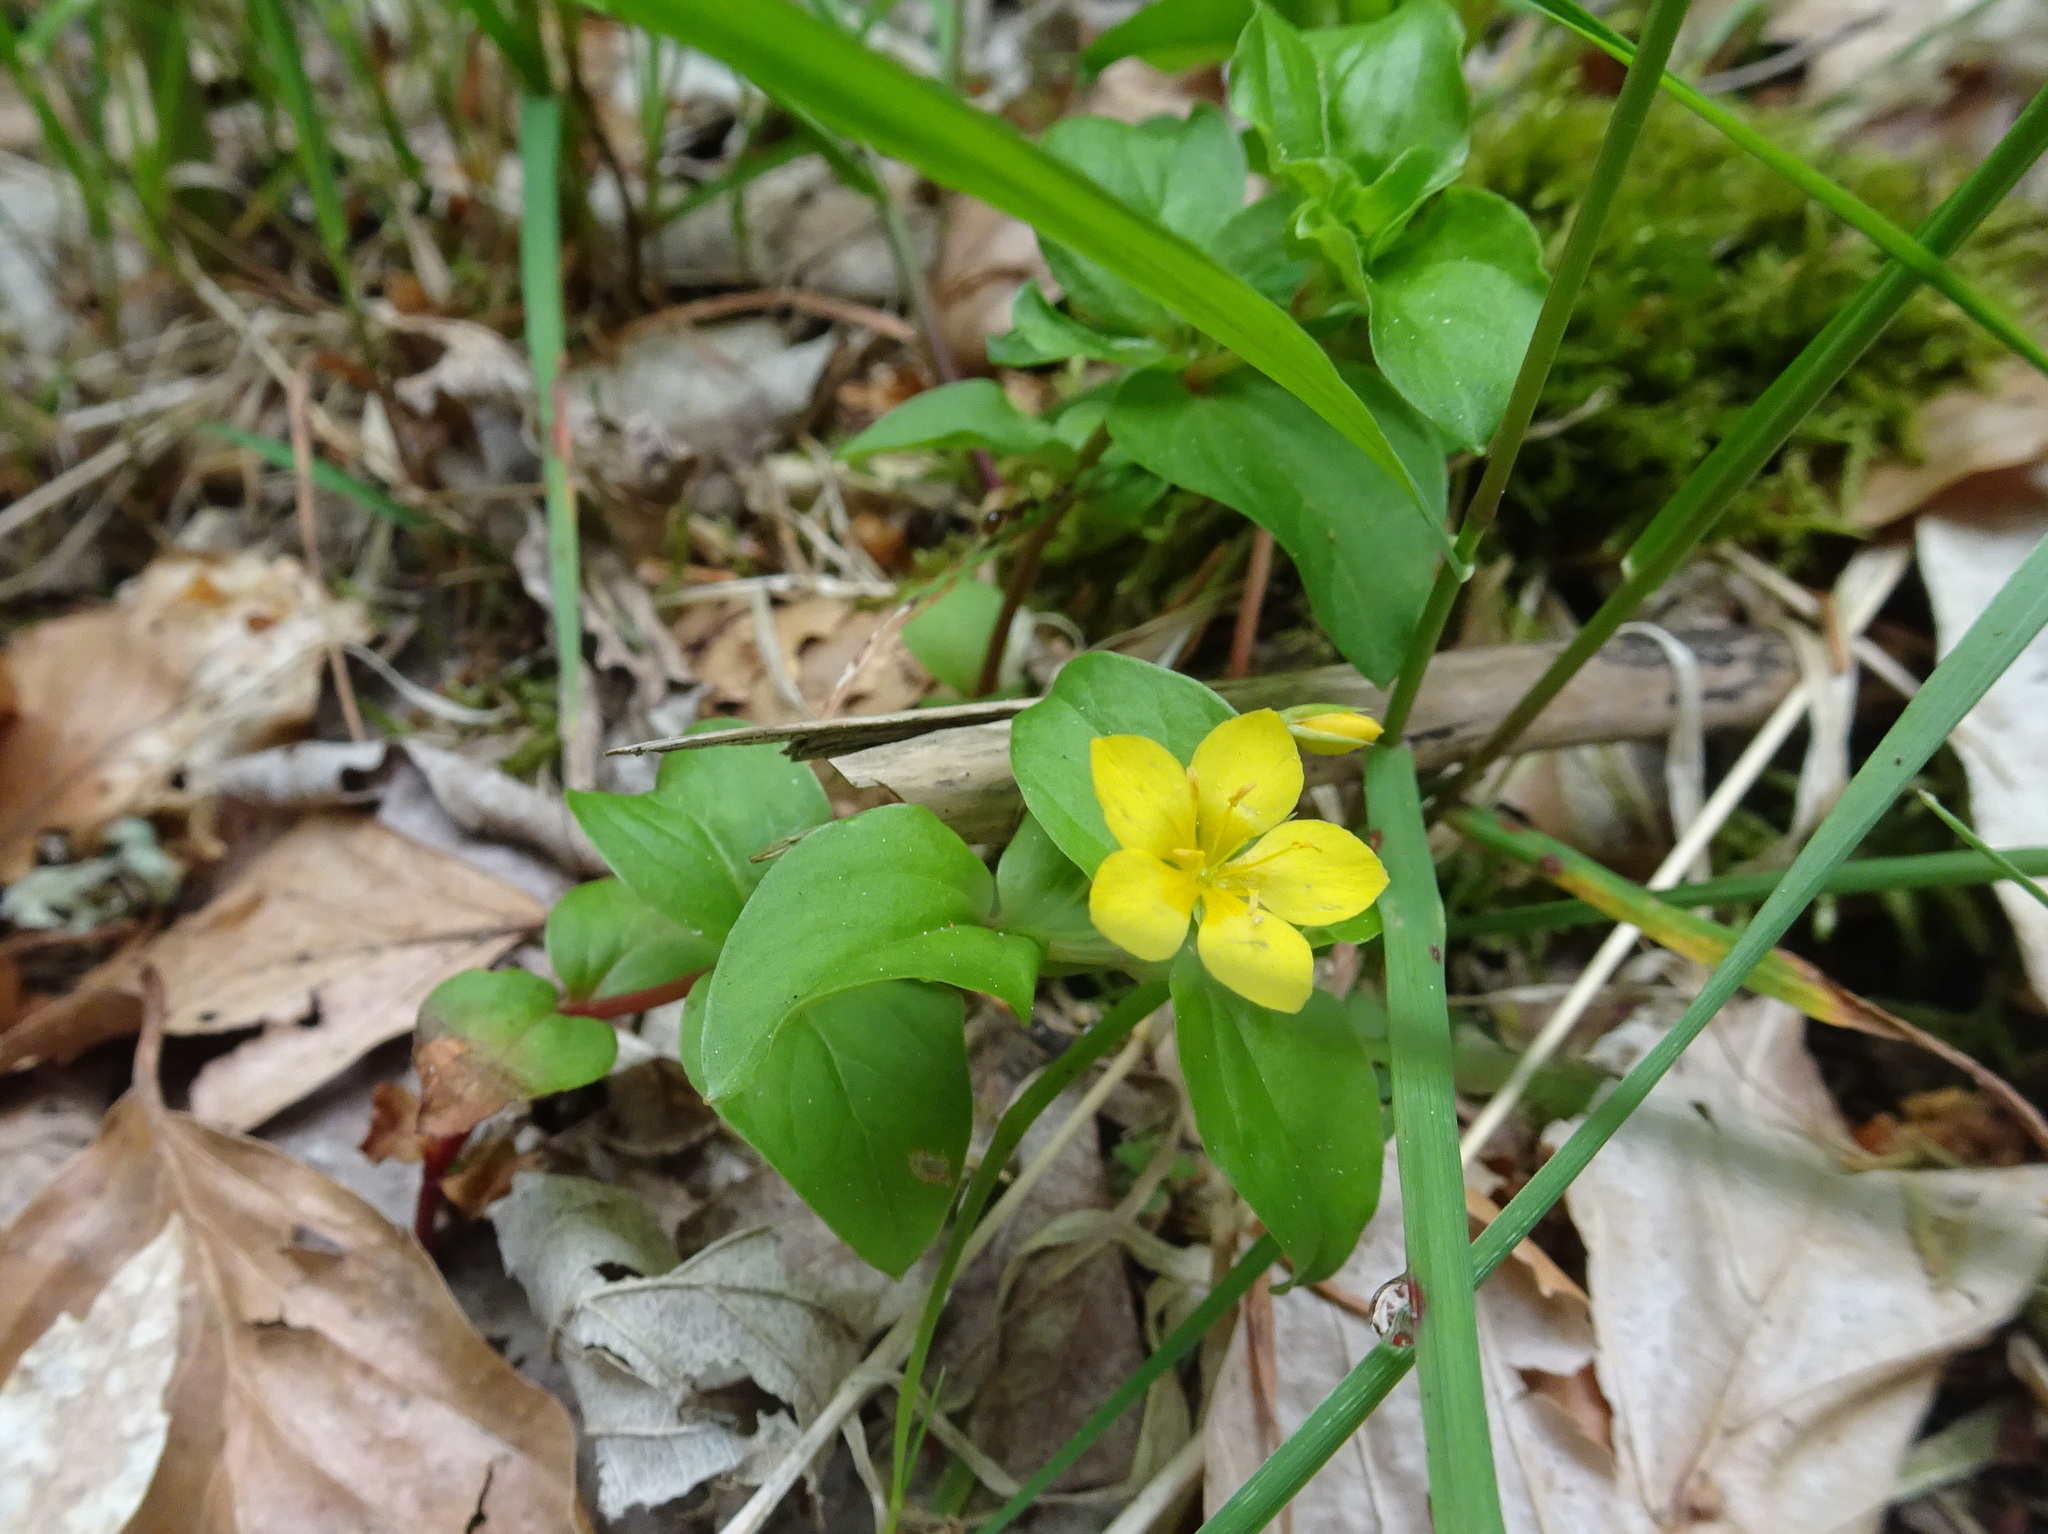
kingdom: Plantae
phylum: Tracheophyta
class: Magnoliopsida
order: Ericales
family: Primulaceae
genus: Lysimachia
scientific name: Lysimachia nemorum
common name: Yellow pimpernel
